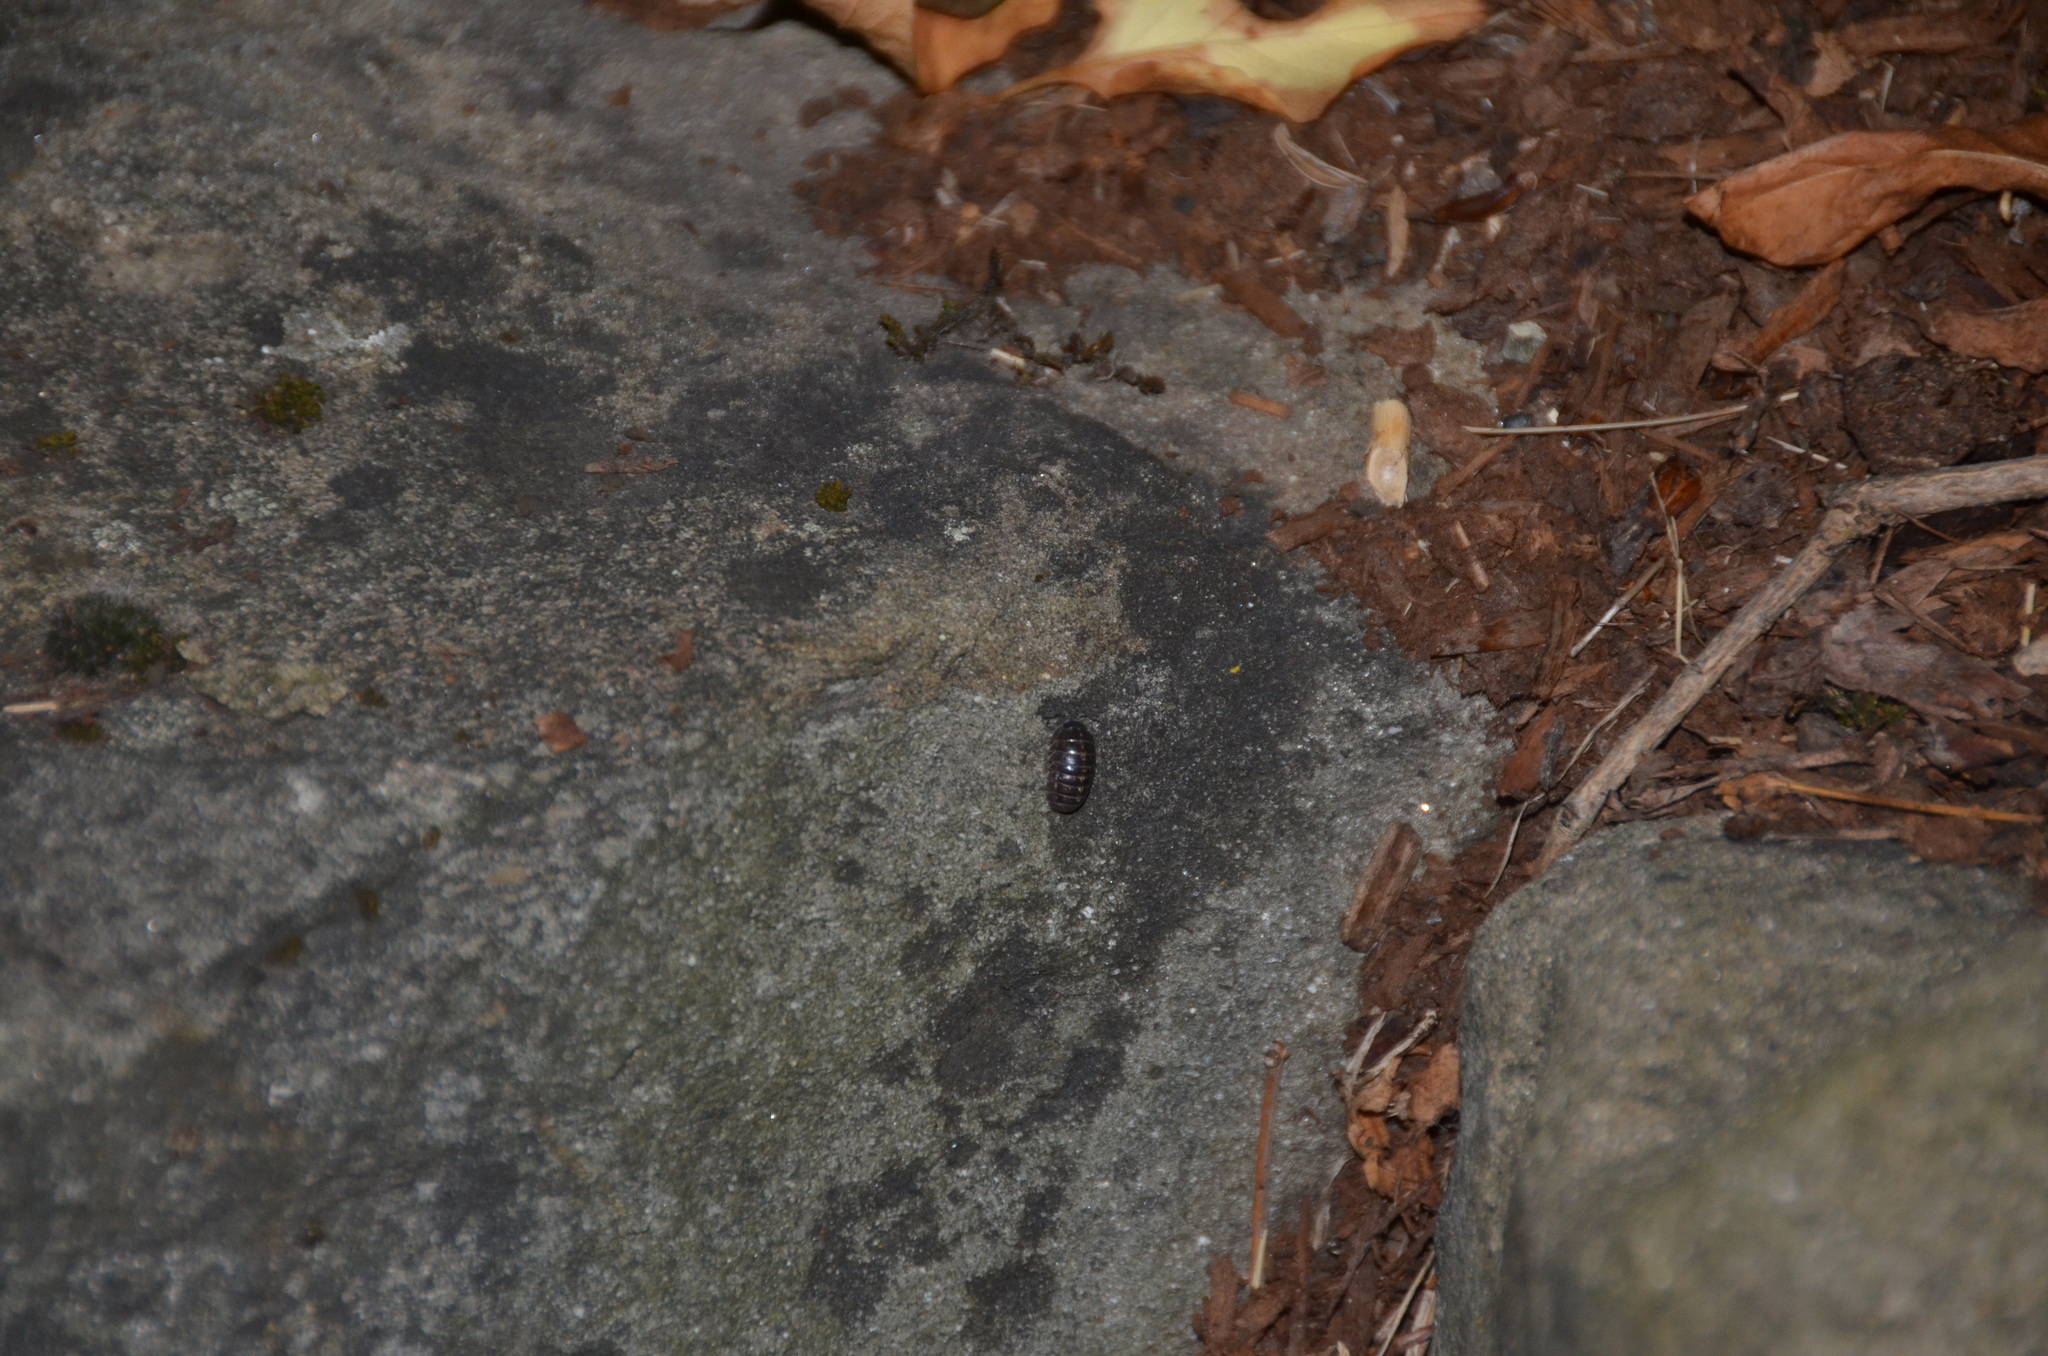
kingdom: Animalia
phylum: Arthropoda
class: Malacostraca
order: Isopoda
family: Armadillidiidae
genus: Armadillidium
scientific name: Armadillidium vulgare
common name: Common pill woodlouse
